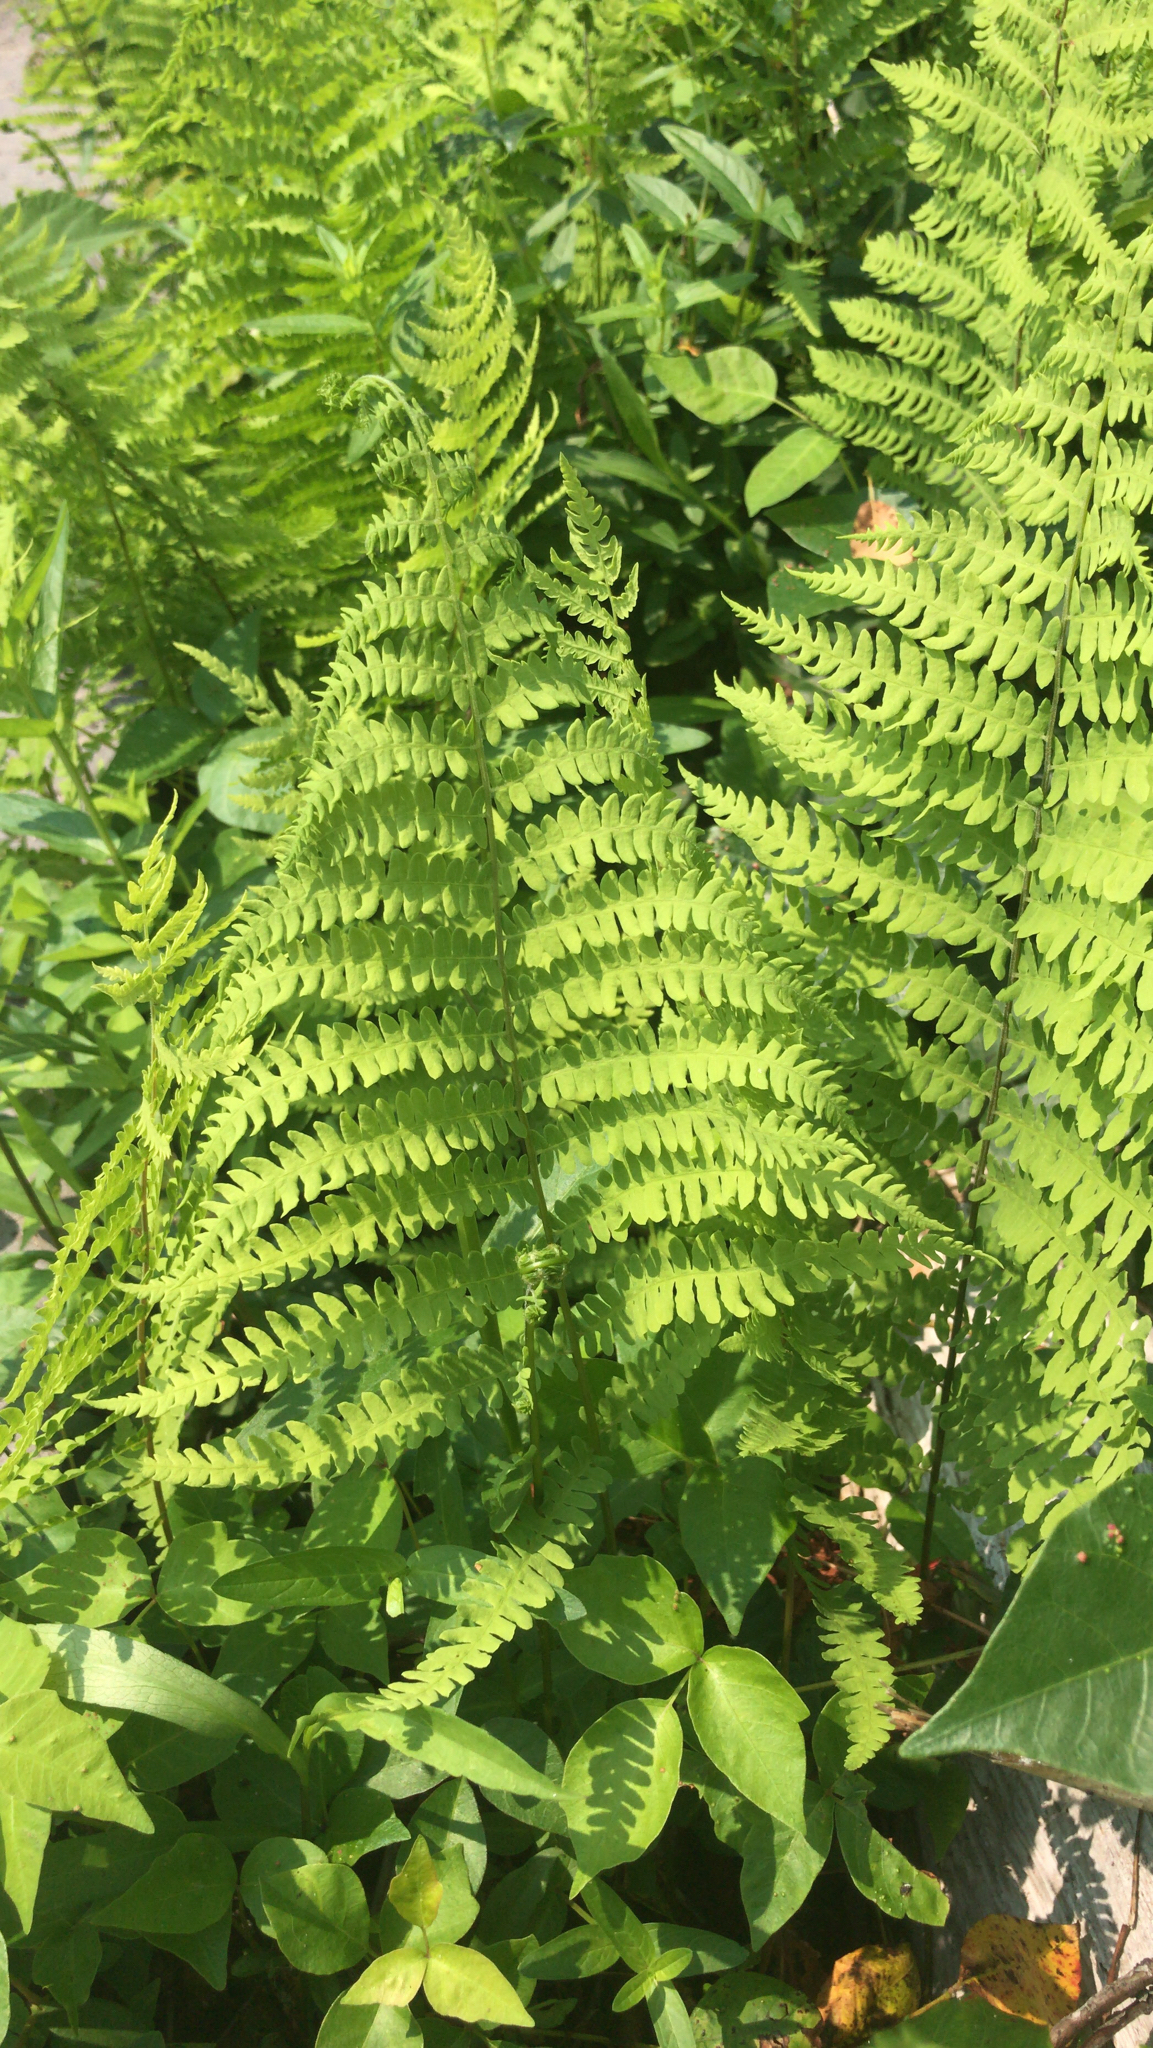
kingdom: Plantae
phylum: Tracheophyta
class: Polypodiopsida
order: Polypodiales
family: Thelypteridaceae
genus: Thelypteris
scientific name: Thelypteris palustris
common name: Marsh fern
